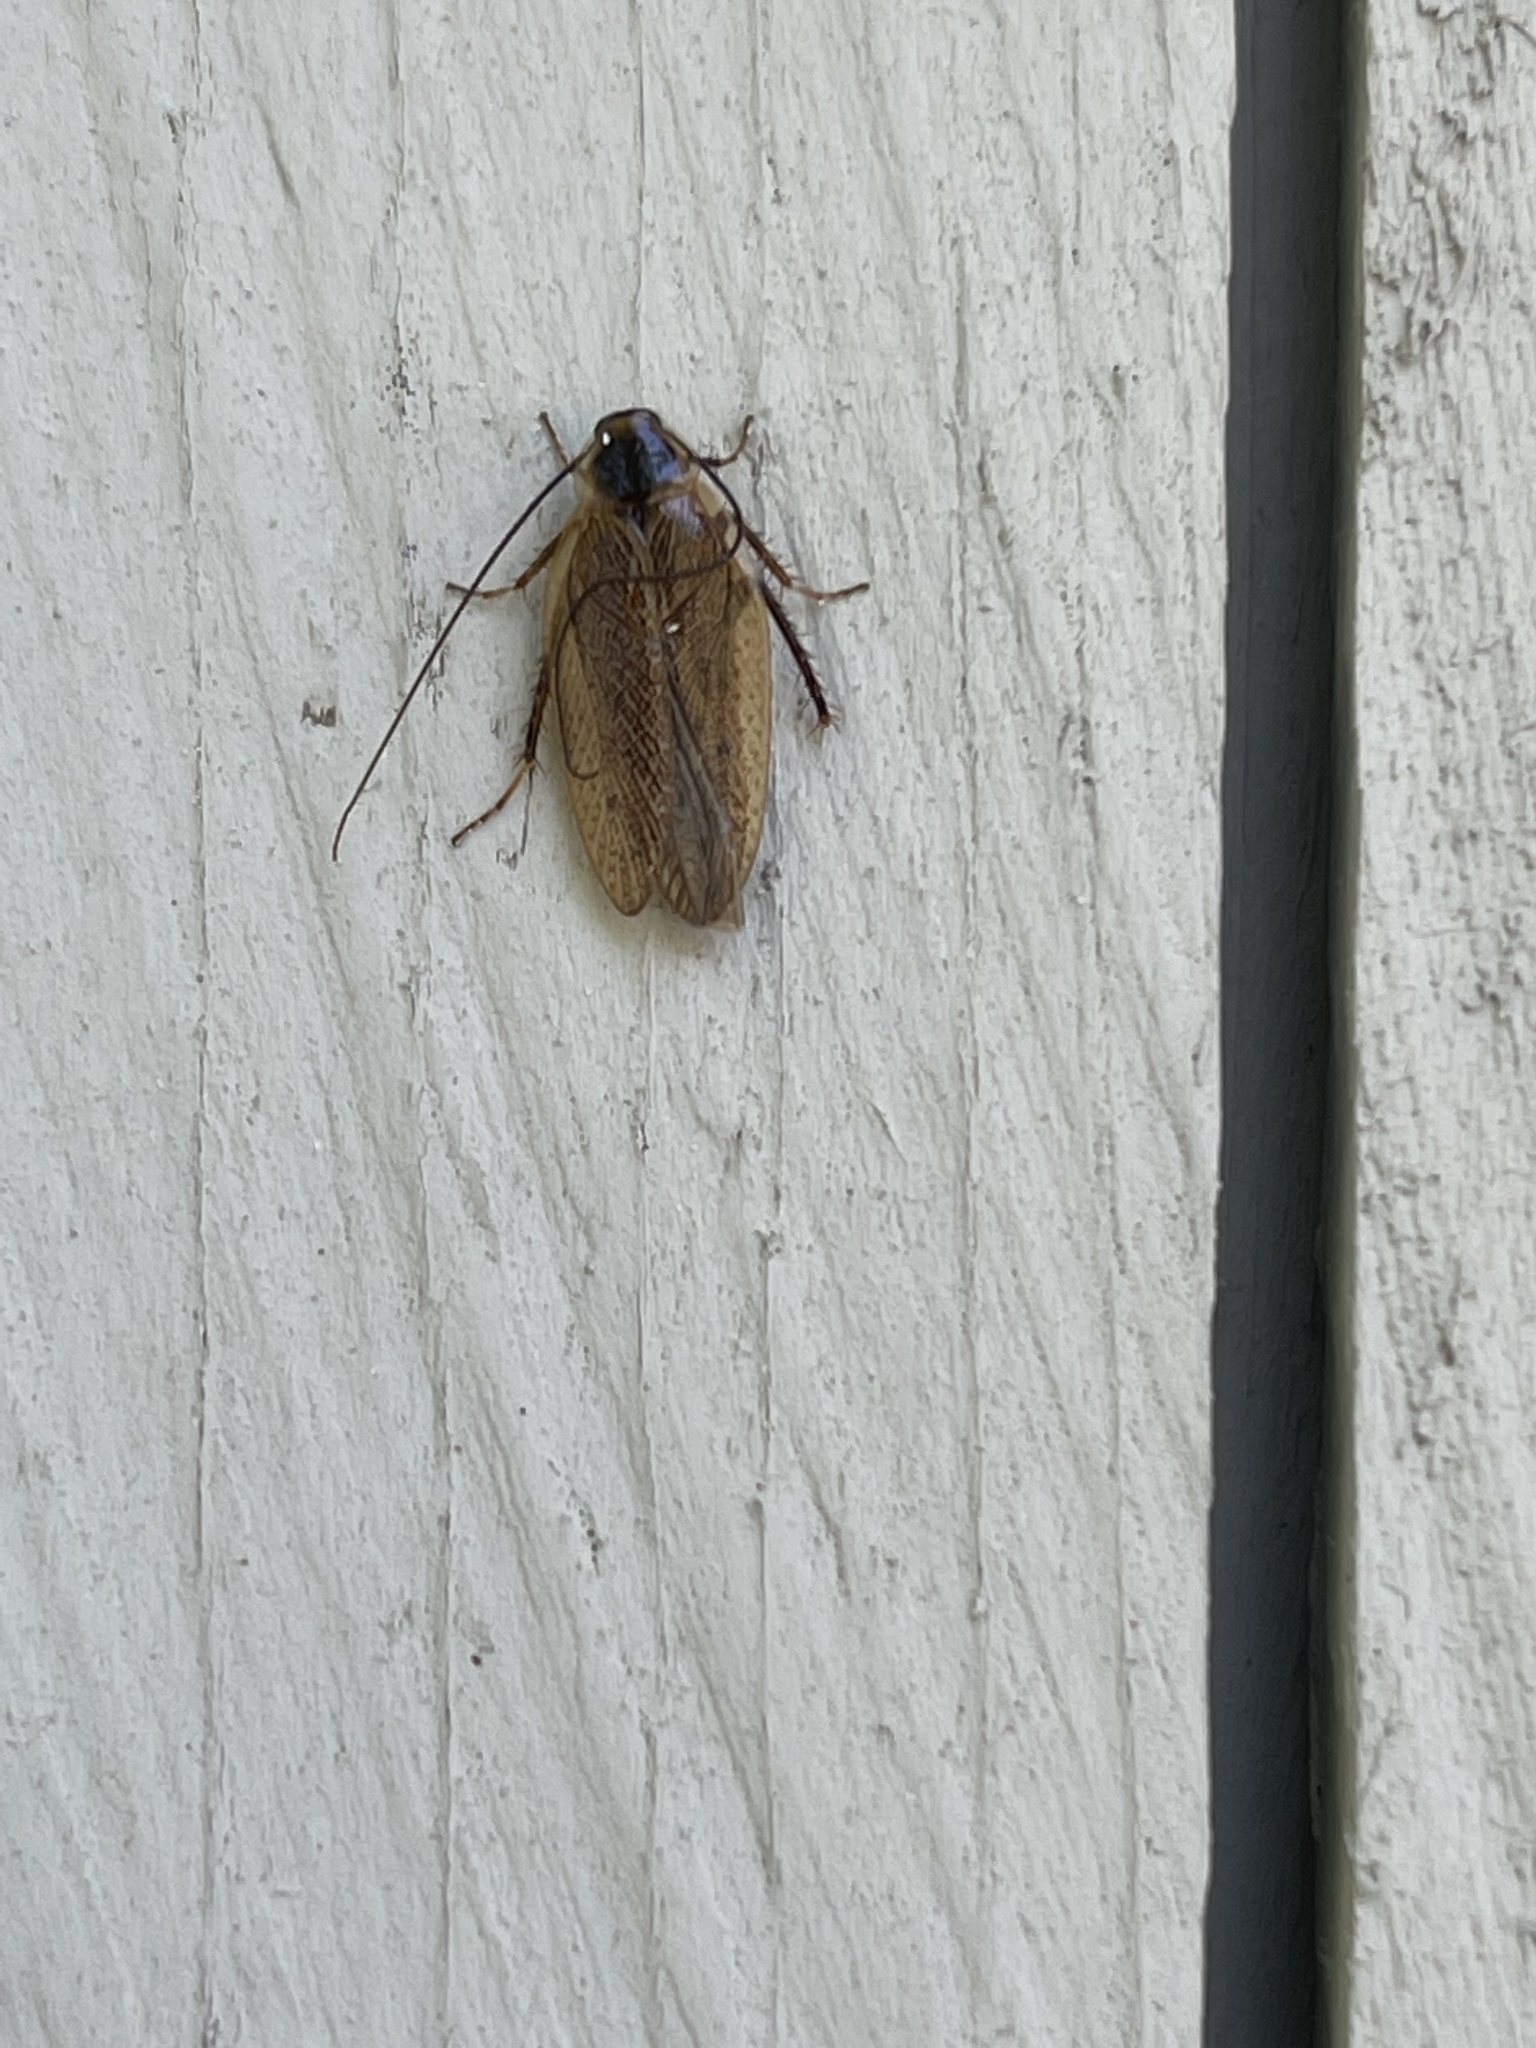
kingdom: Animalia
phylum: Arthropoda
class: Insecta
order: Blattodea
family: Ectobiidae
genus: Ectobius
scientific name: Ectobius lapponicus
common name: Dusky cockroach
